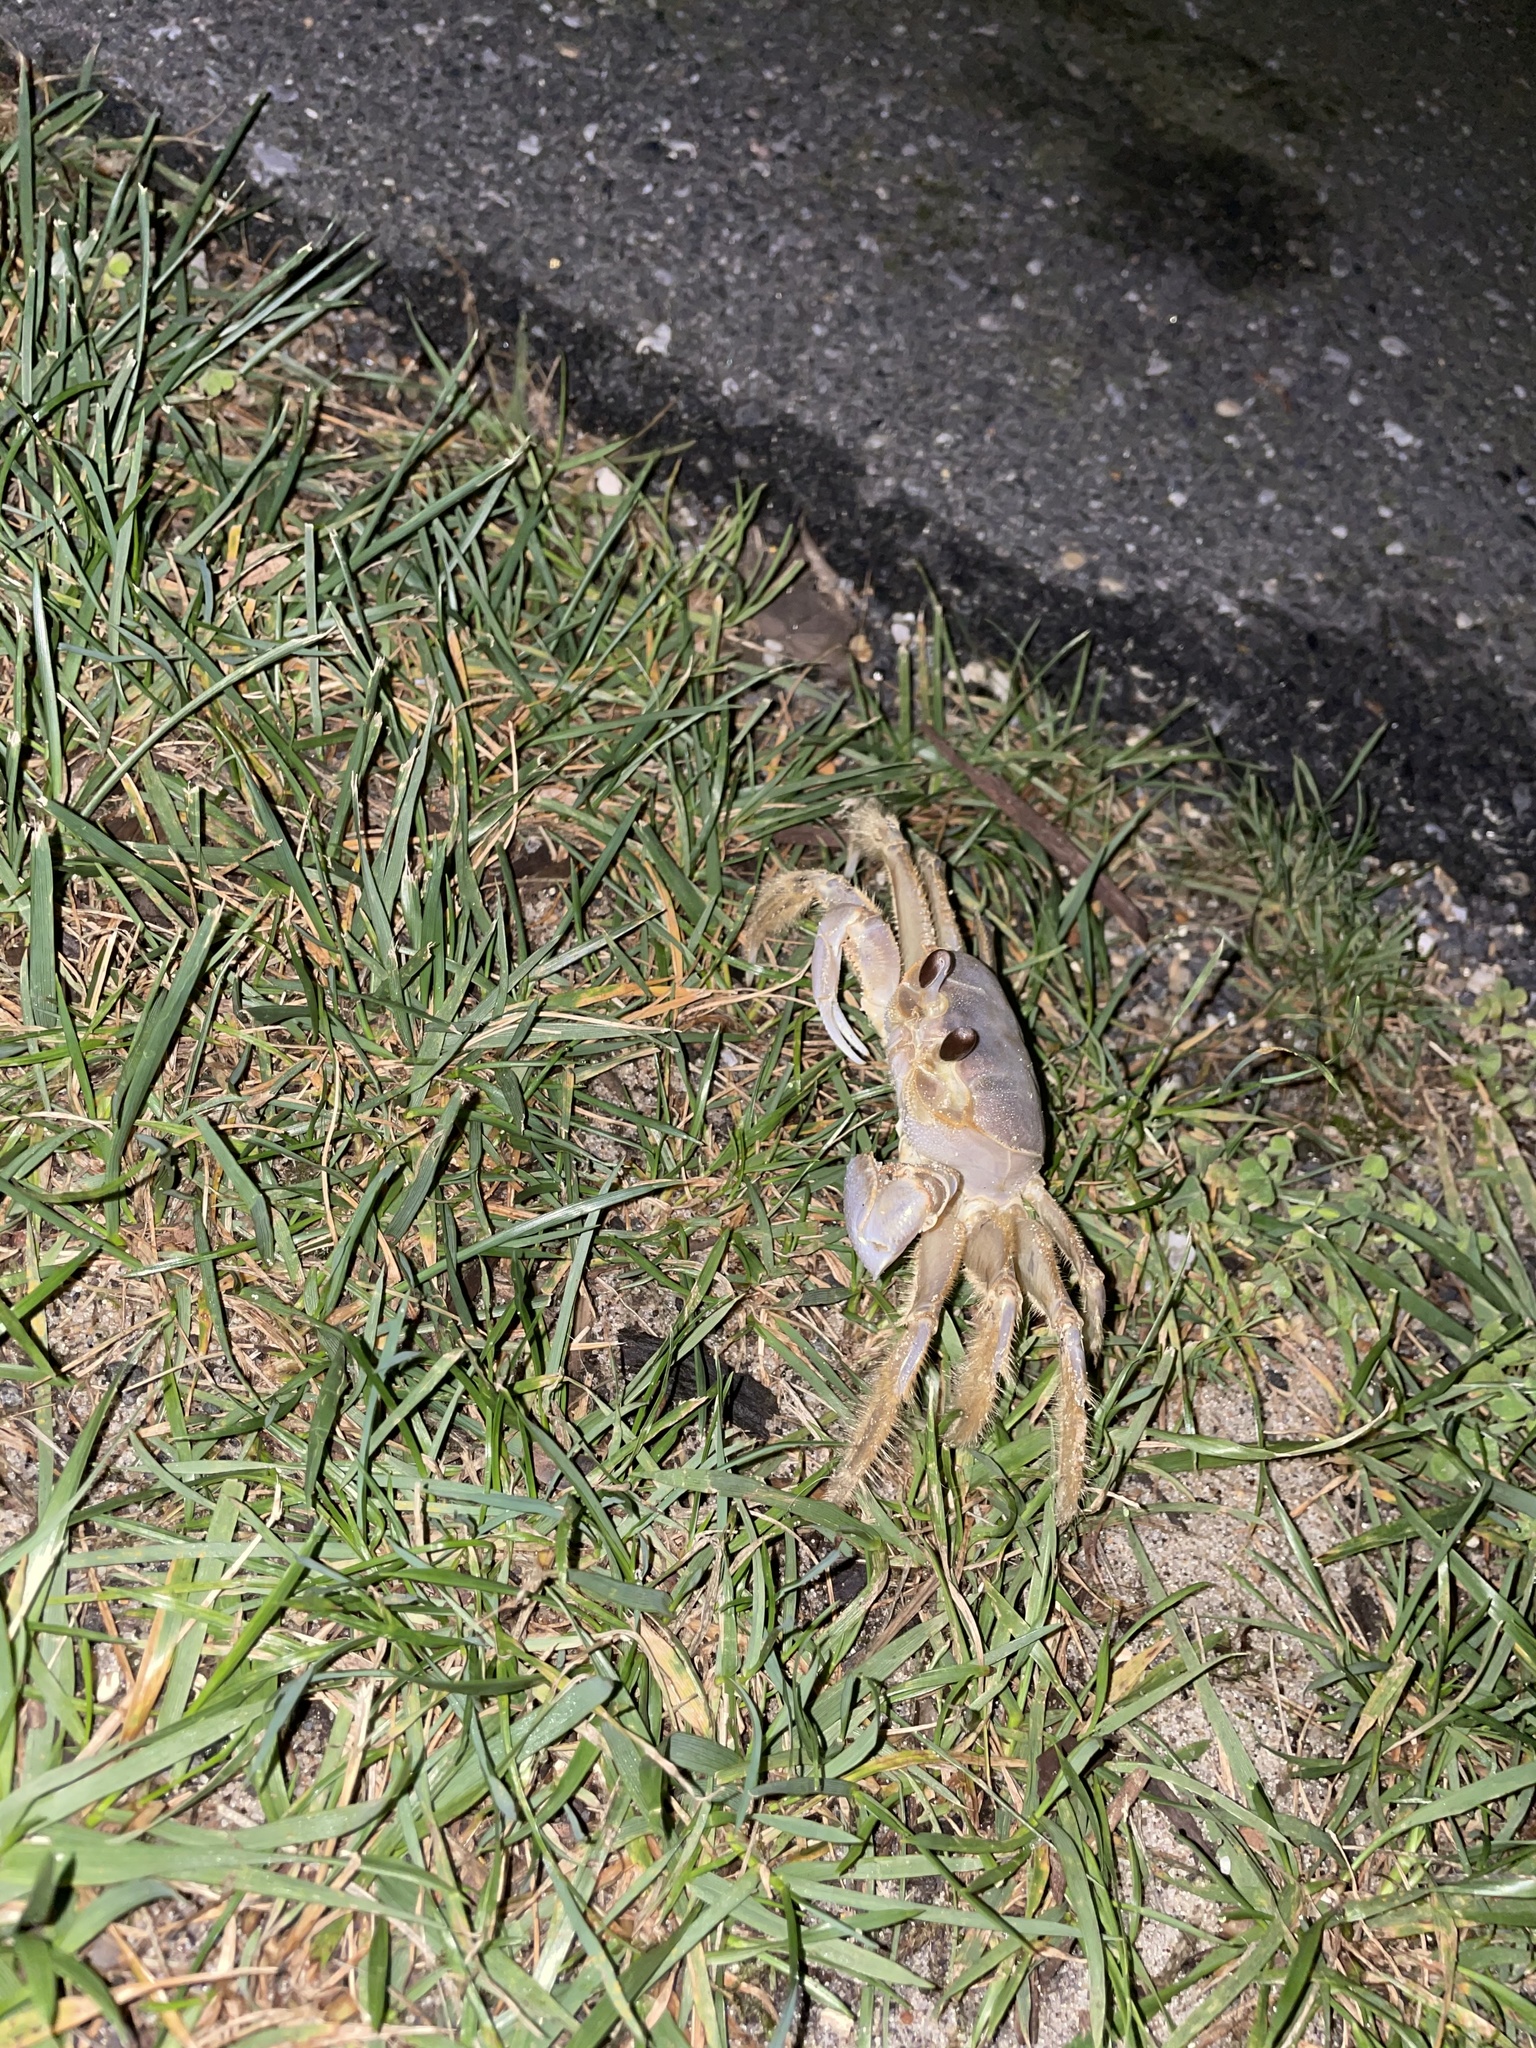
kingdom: Animalia
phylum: Arthropoda
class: Malacostraca
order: Decapoda
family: Ocypodidae
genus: Ocypode
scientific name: Ocypode quadrata
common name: Ghost crab
